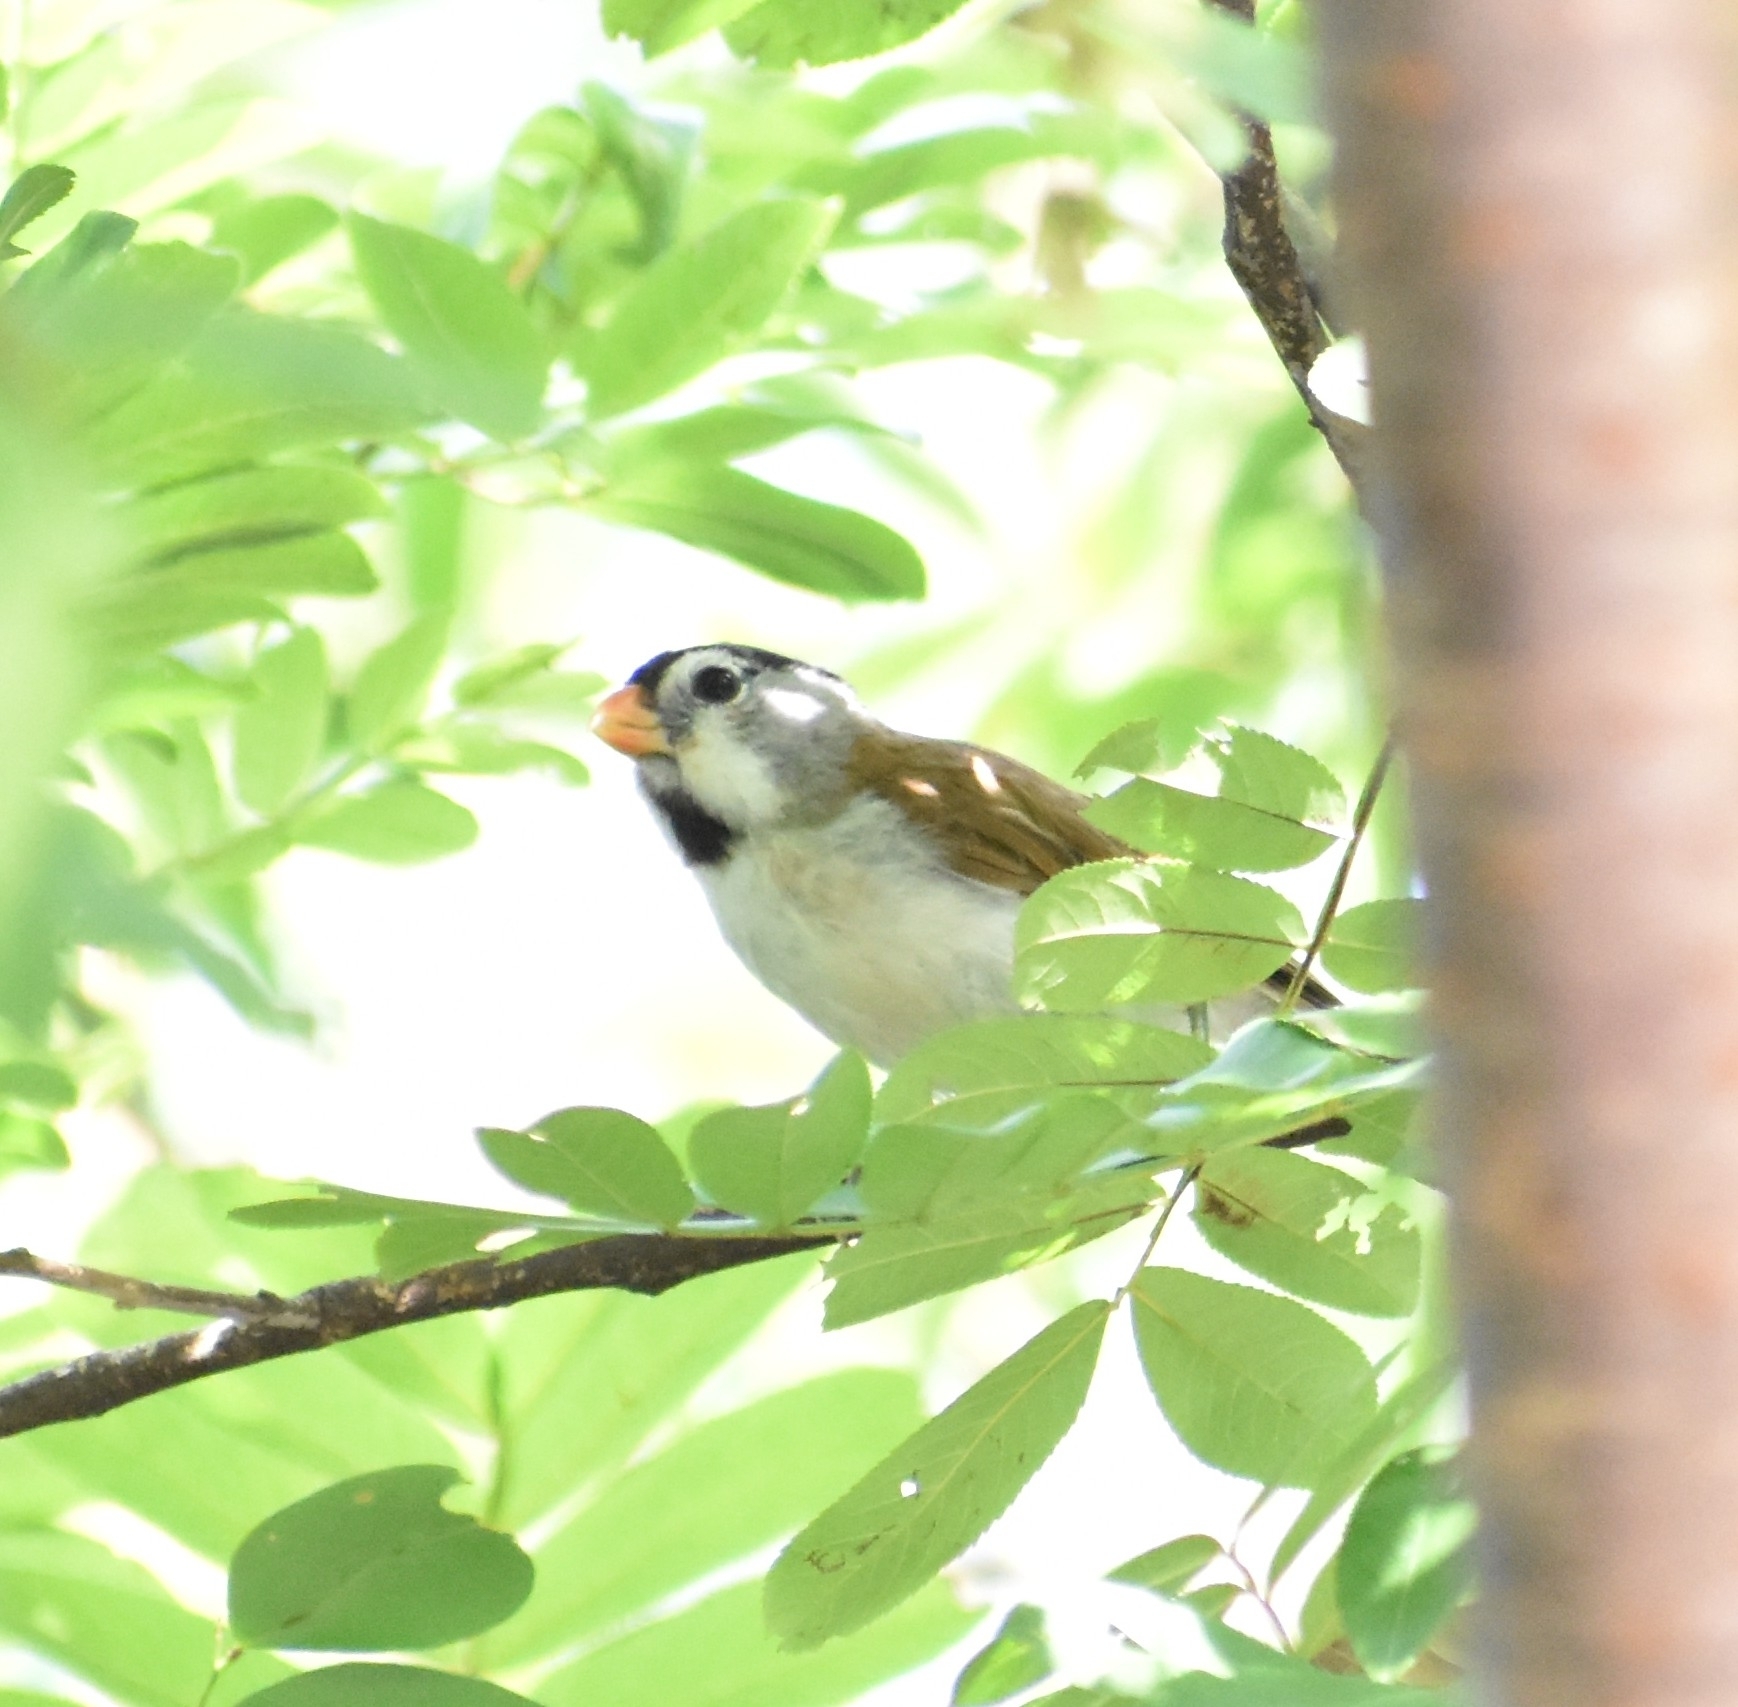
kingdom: Animalia
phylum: Chordata
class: Aves
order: Passeriformes
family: Sylviidae
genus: Psittiparus
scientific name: Psittiparus gularis
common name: Gray-headed parrotbill
